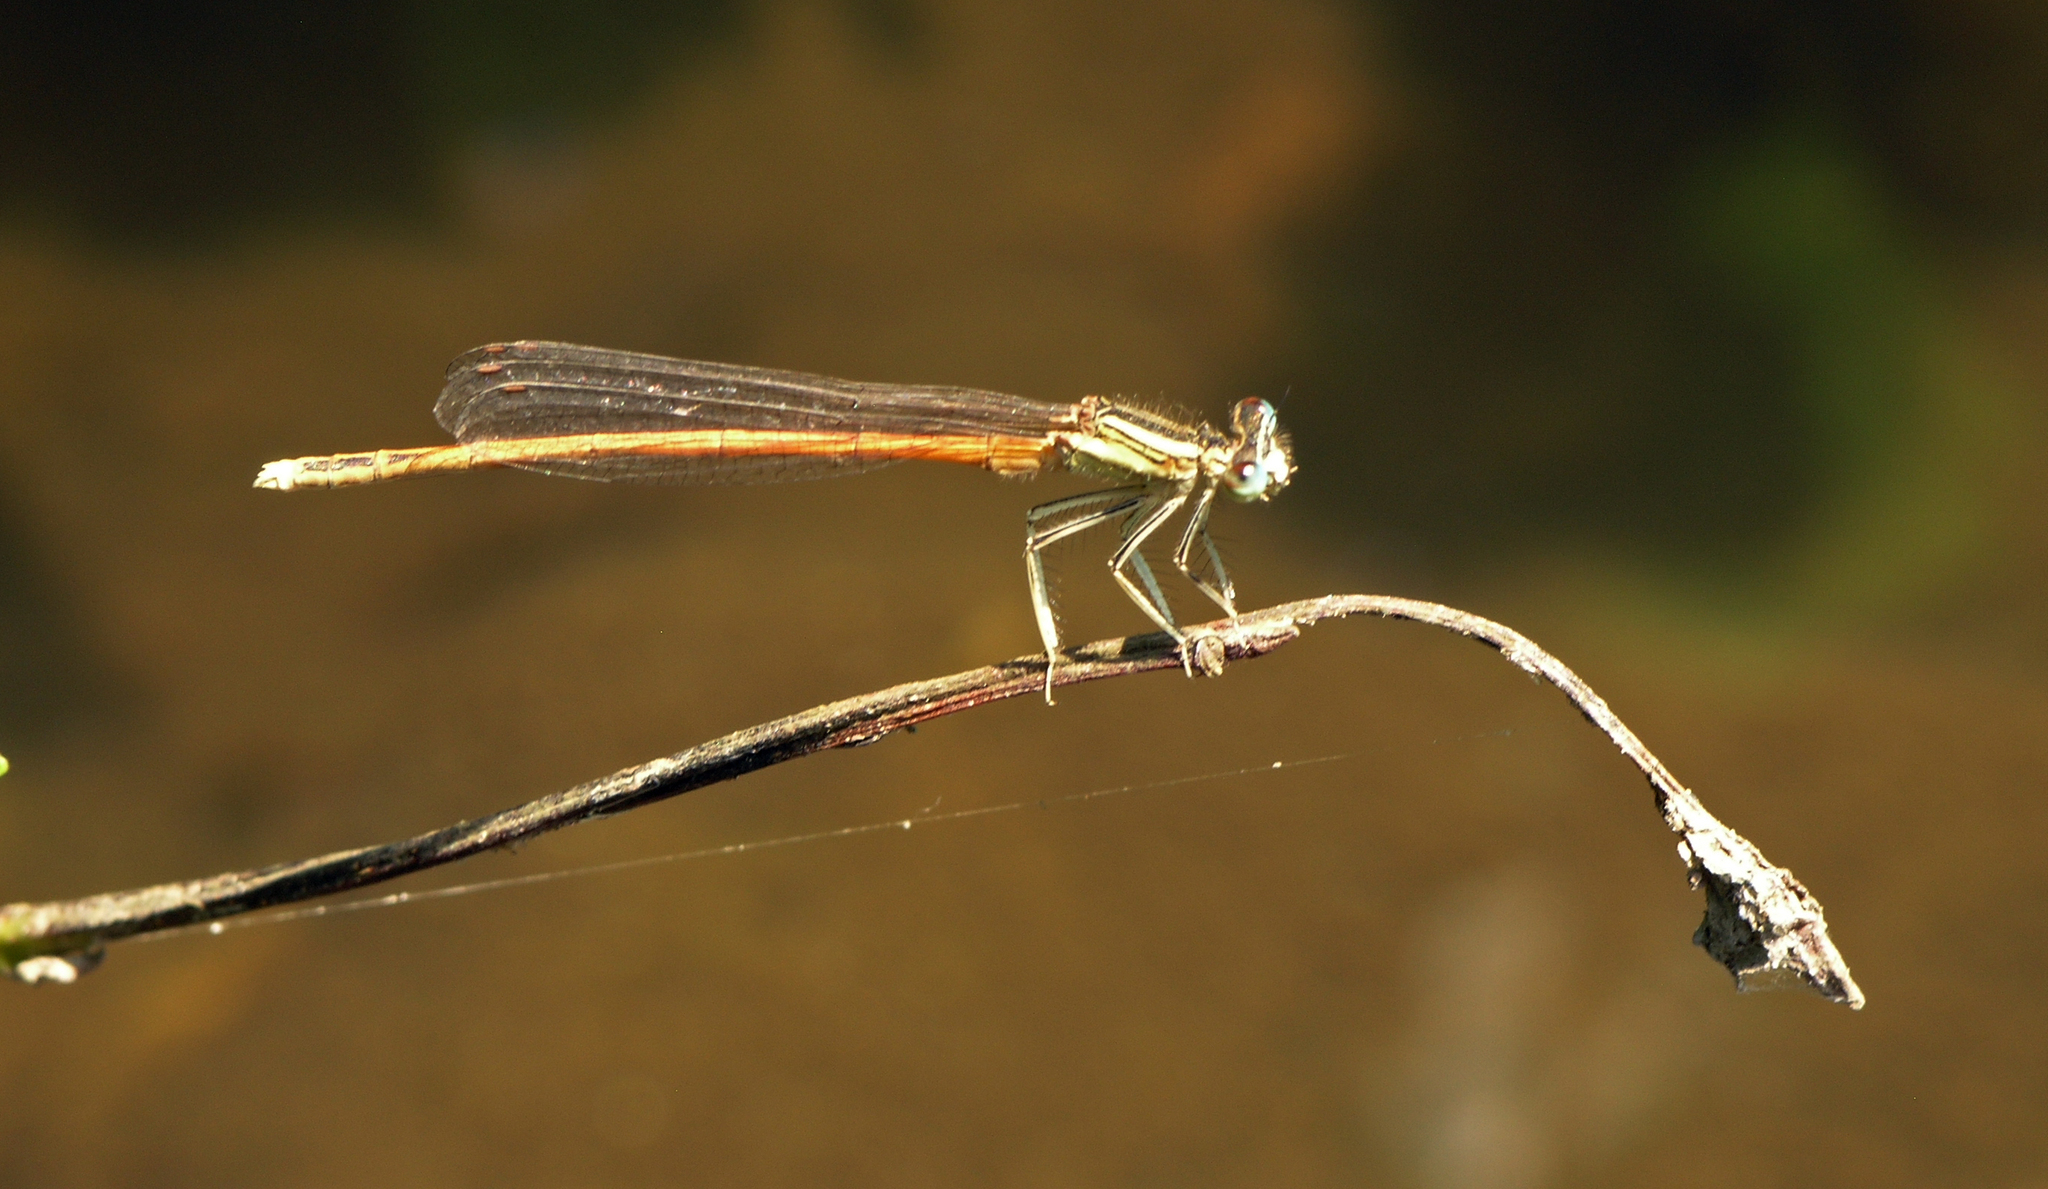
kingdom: Animalia
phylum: Arthropoda
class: Insecta
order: Odonata
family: Platycnemididae
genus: Platycnemis
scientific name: Platycnemis acutipennis
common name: Orange featherleg
